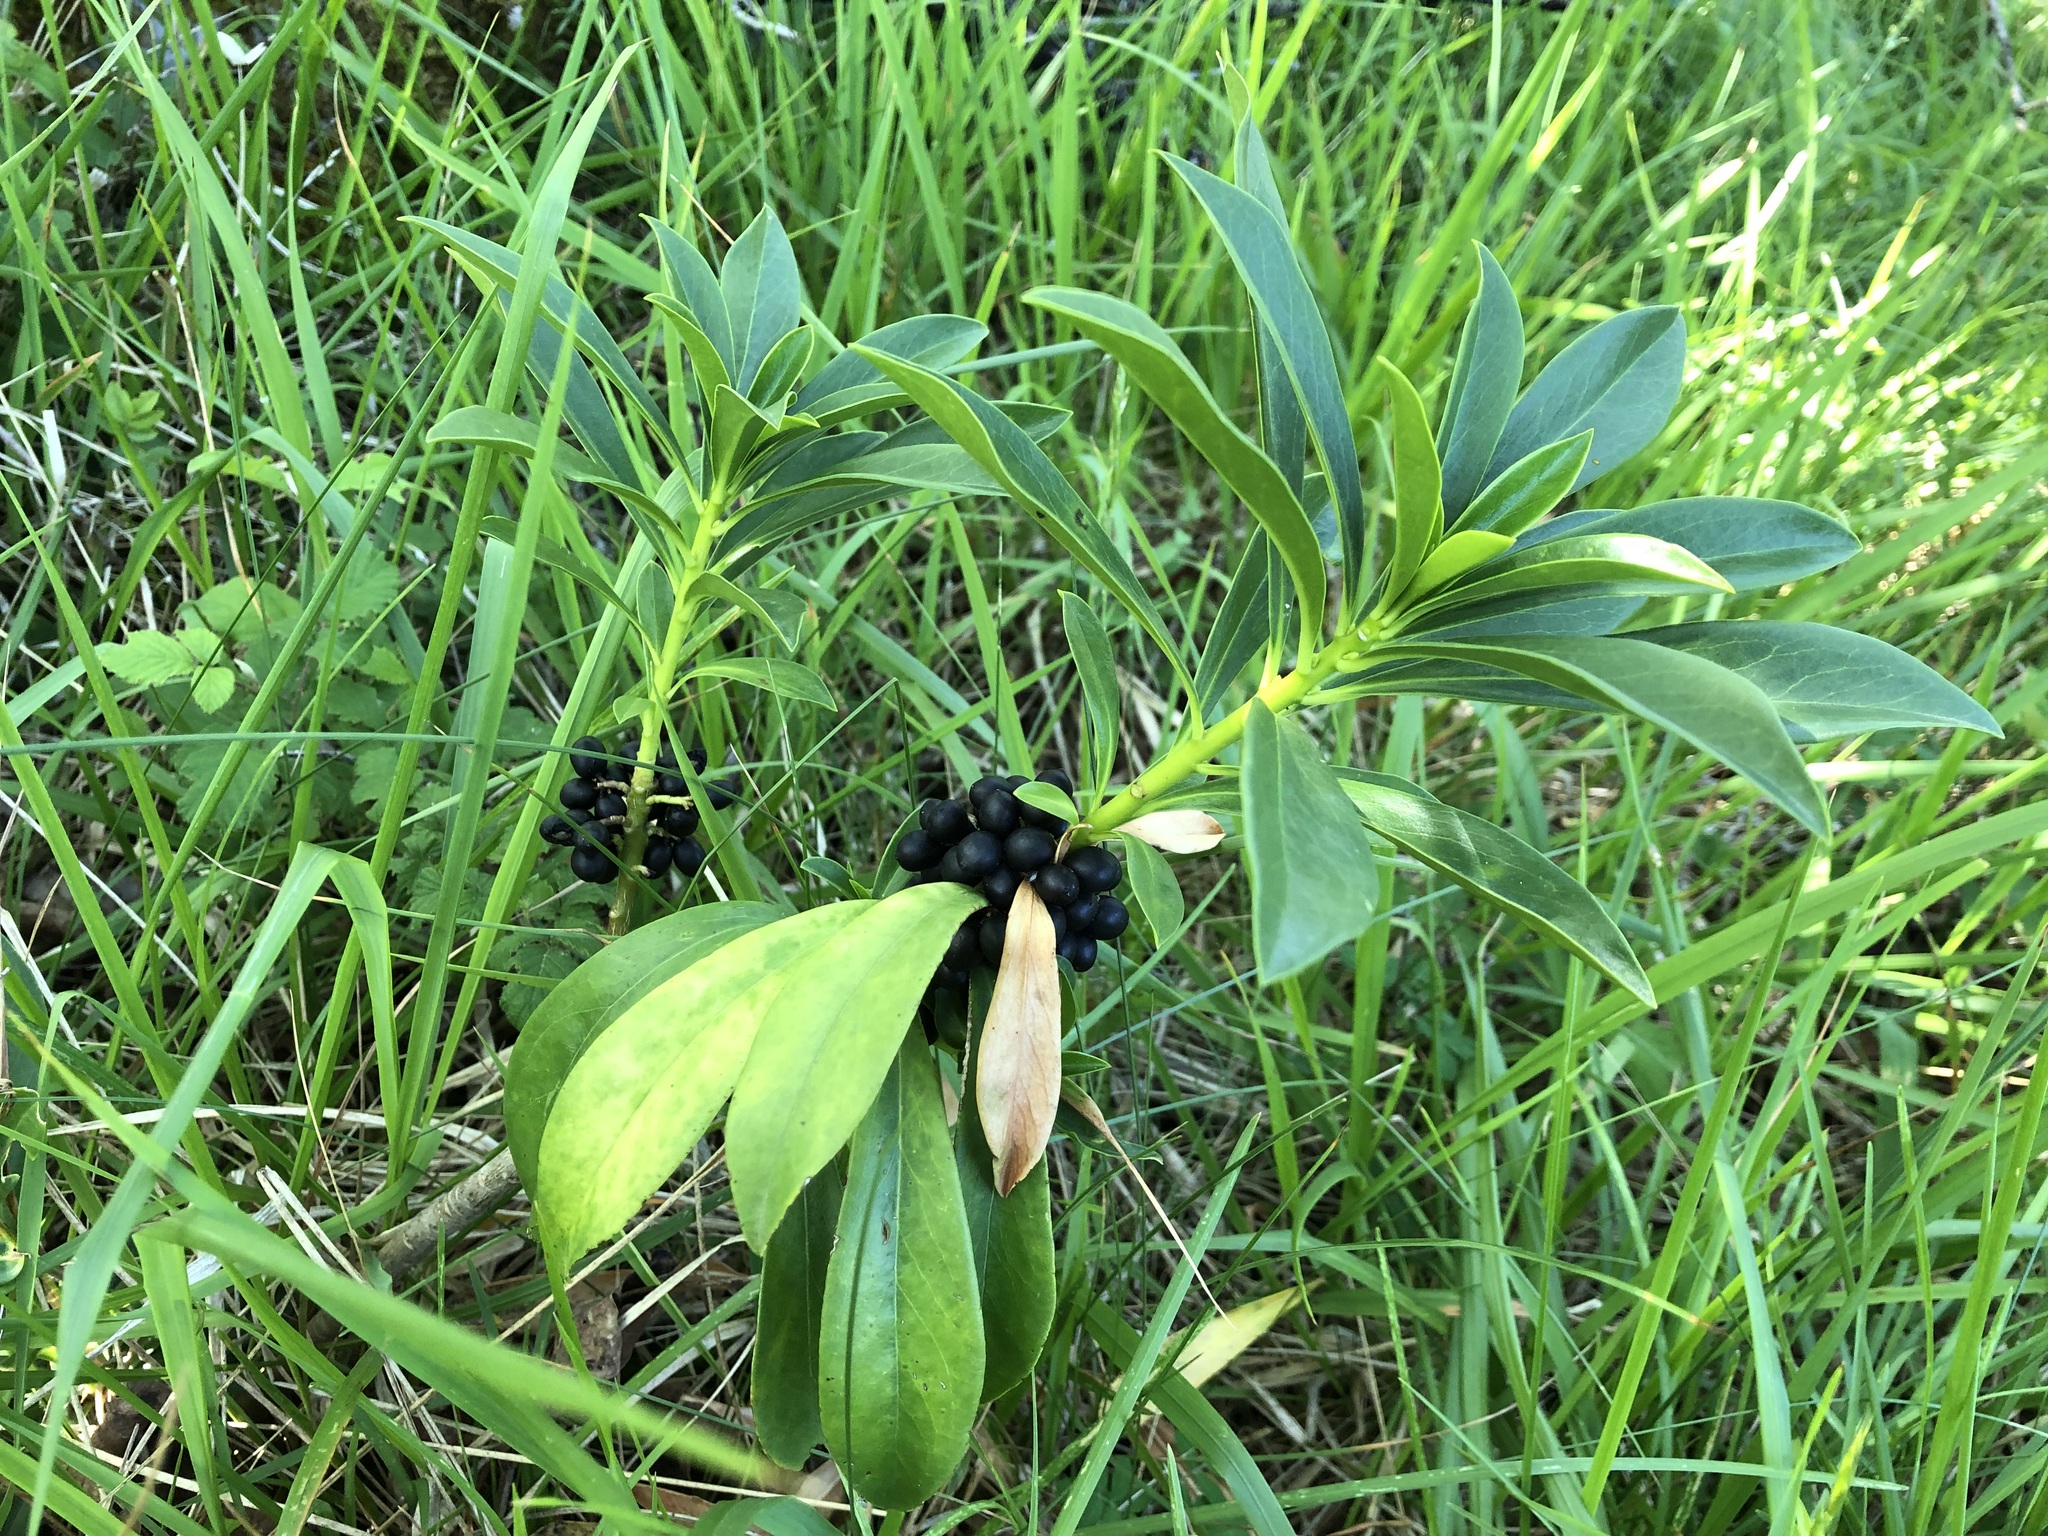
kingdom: Plantae
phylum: Tracheophyta
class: Magnoliopsida
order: Malvales
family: Thymelaeaceae
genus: Daphne
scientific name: Daphne laureola
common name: Spurge-laurel
